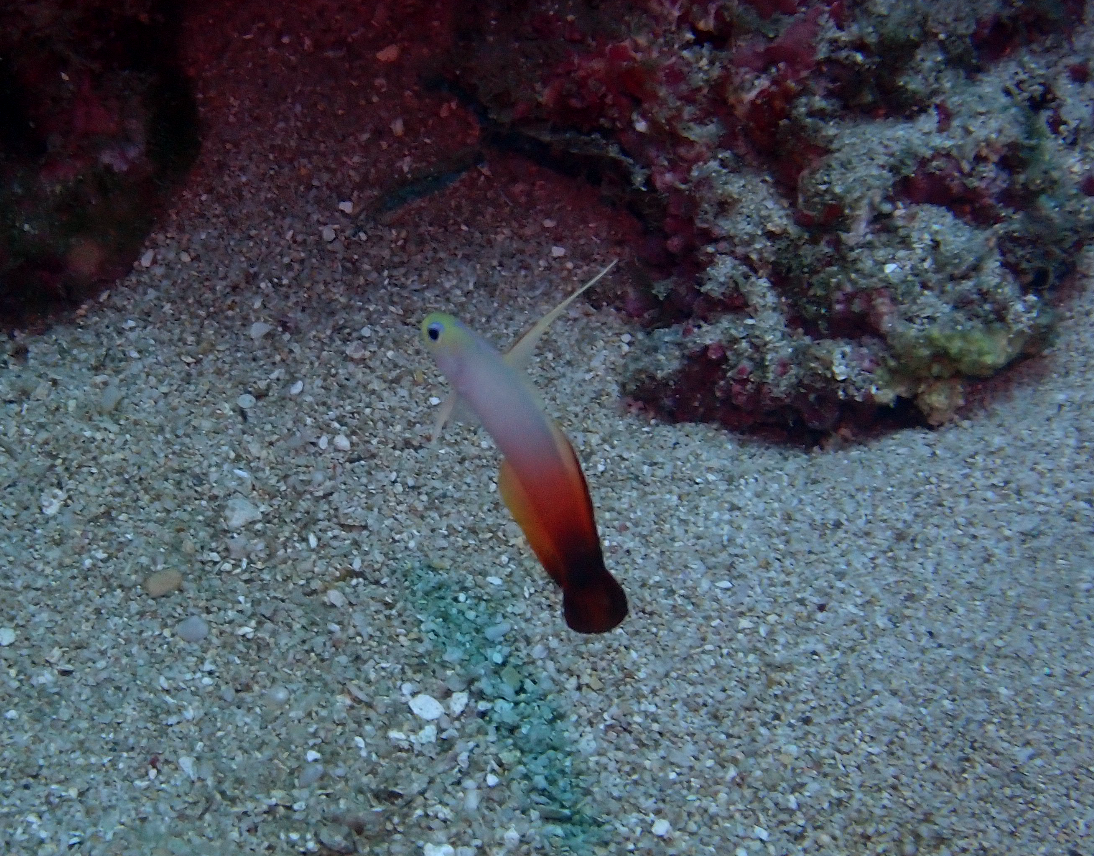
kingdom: Animalia
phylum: Chordata
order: Perciformes
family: Microdesmidae
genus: Nemateleotris
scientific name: Nemateleotris magnifica
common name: Fire goby
